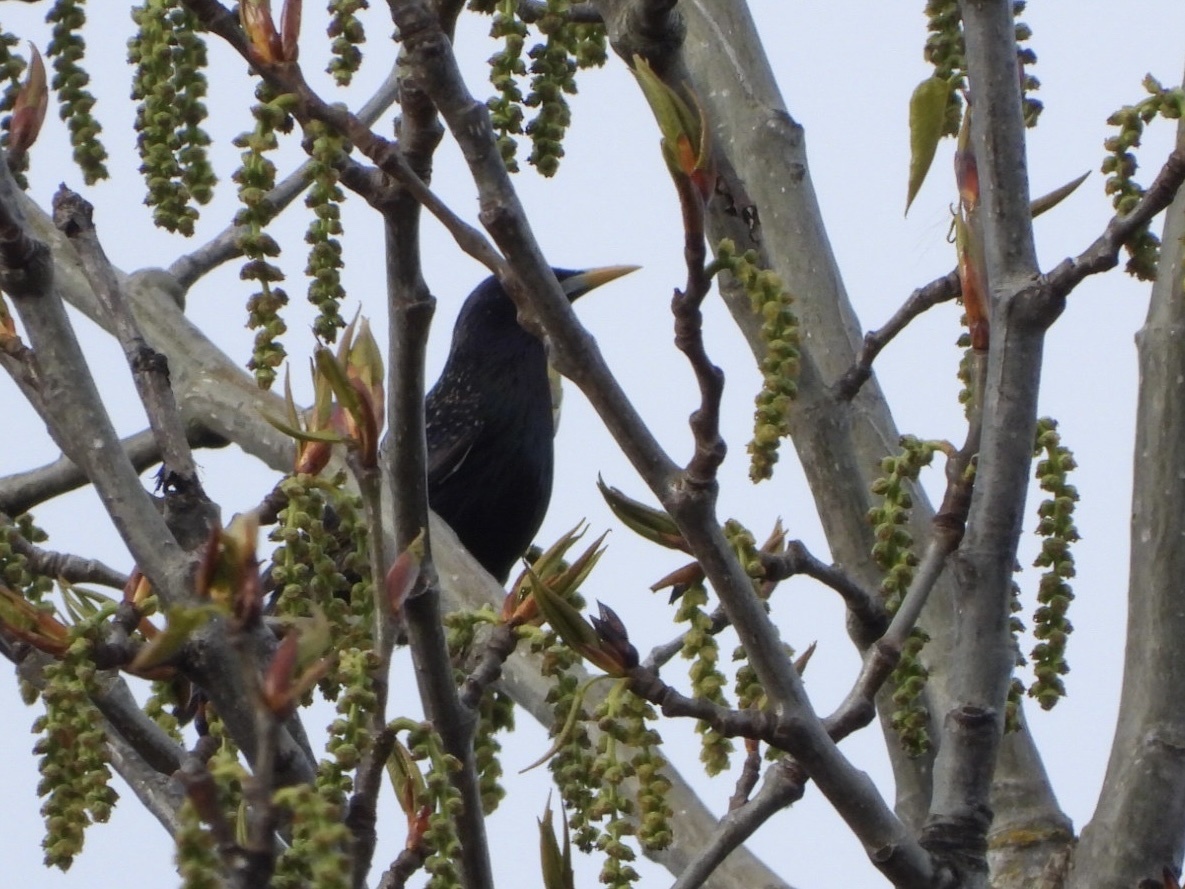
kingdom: Animalia
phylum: Chordata
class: Aves
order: Passeriformes
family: Sturnidae
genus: Sturnus
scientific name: Sturnus vulgaris
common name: Common starling
